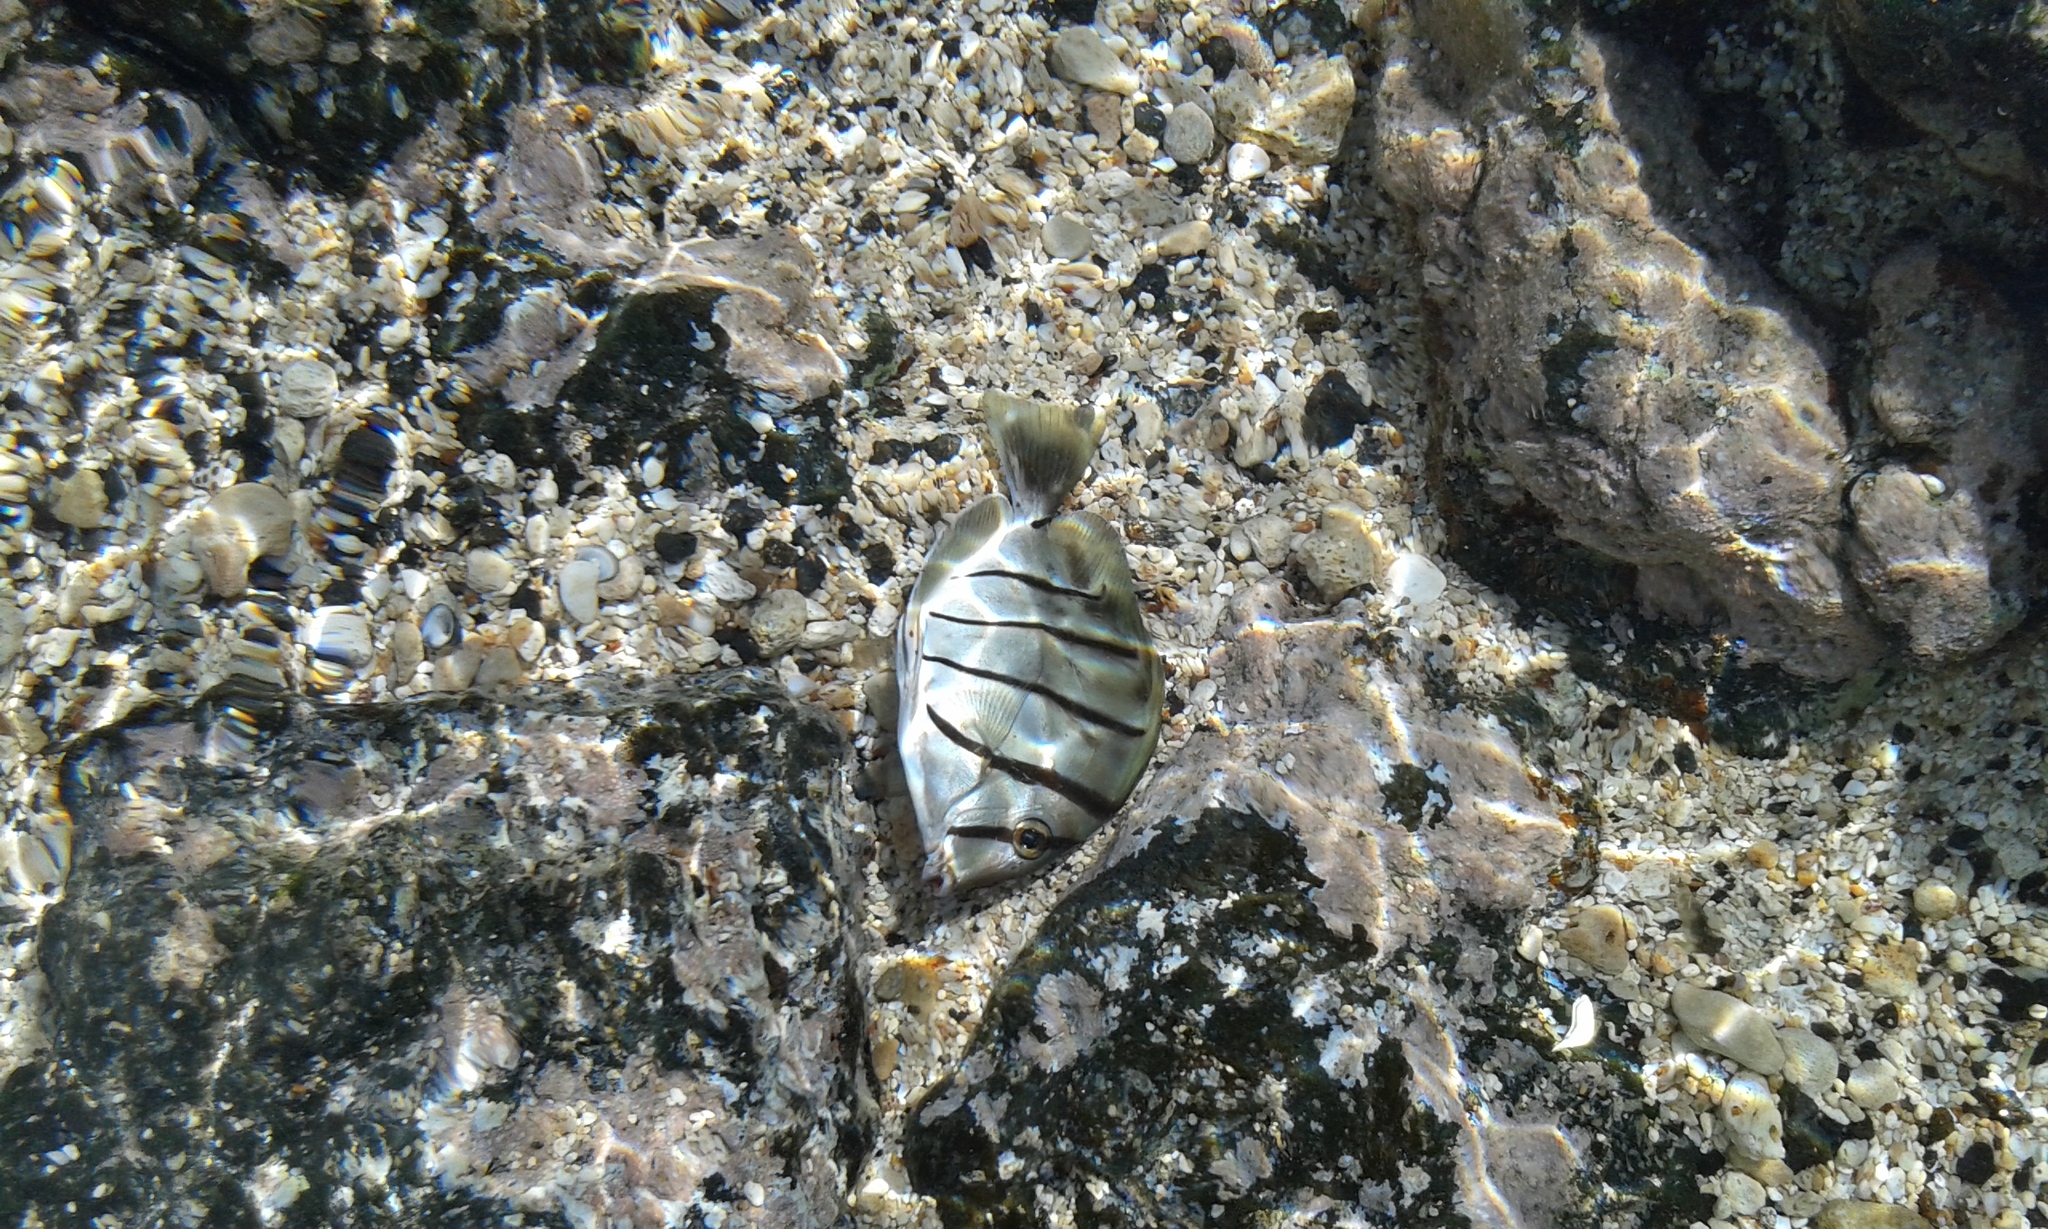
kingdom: Animalia
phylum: Chordata
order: Perciformes
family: Acanthuridae
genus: Acanthurus
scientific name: Acanthurus triostegus
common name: Convict surgeonfish
